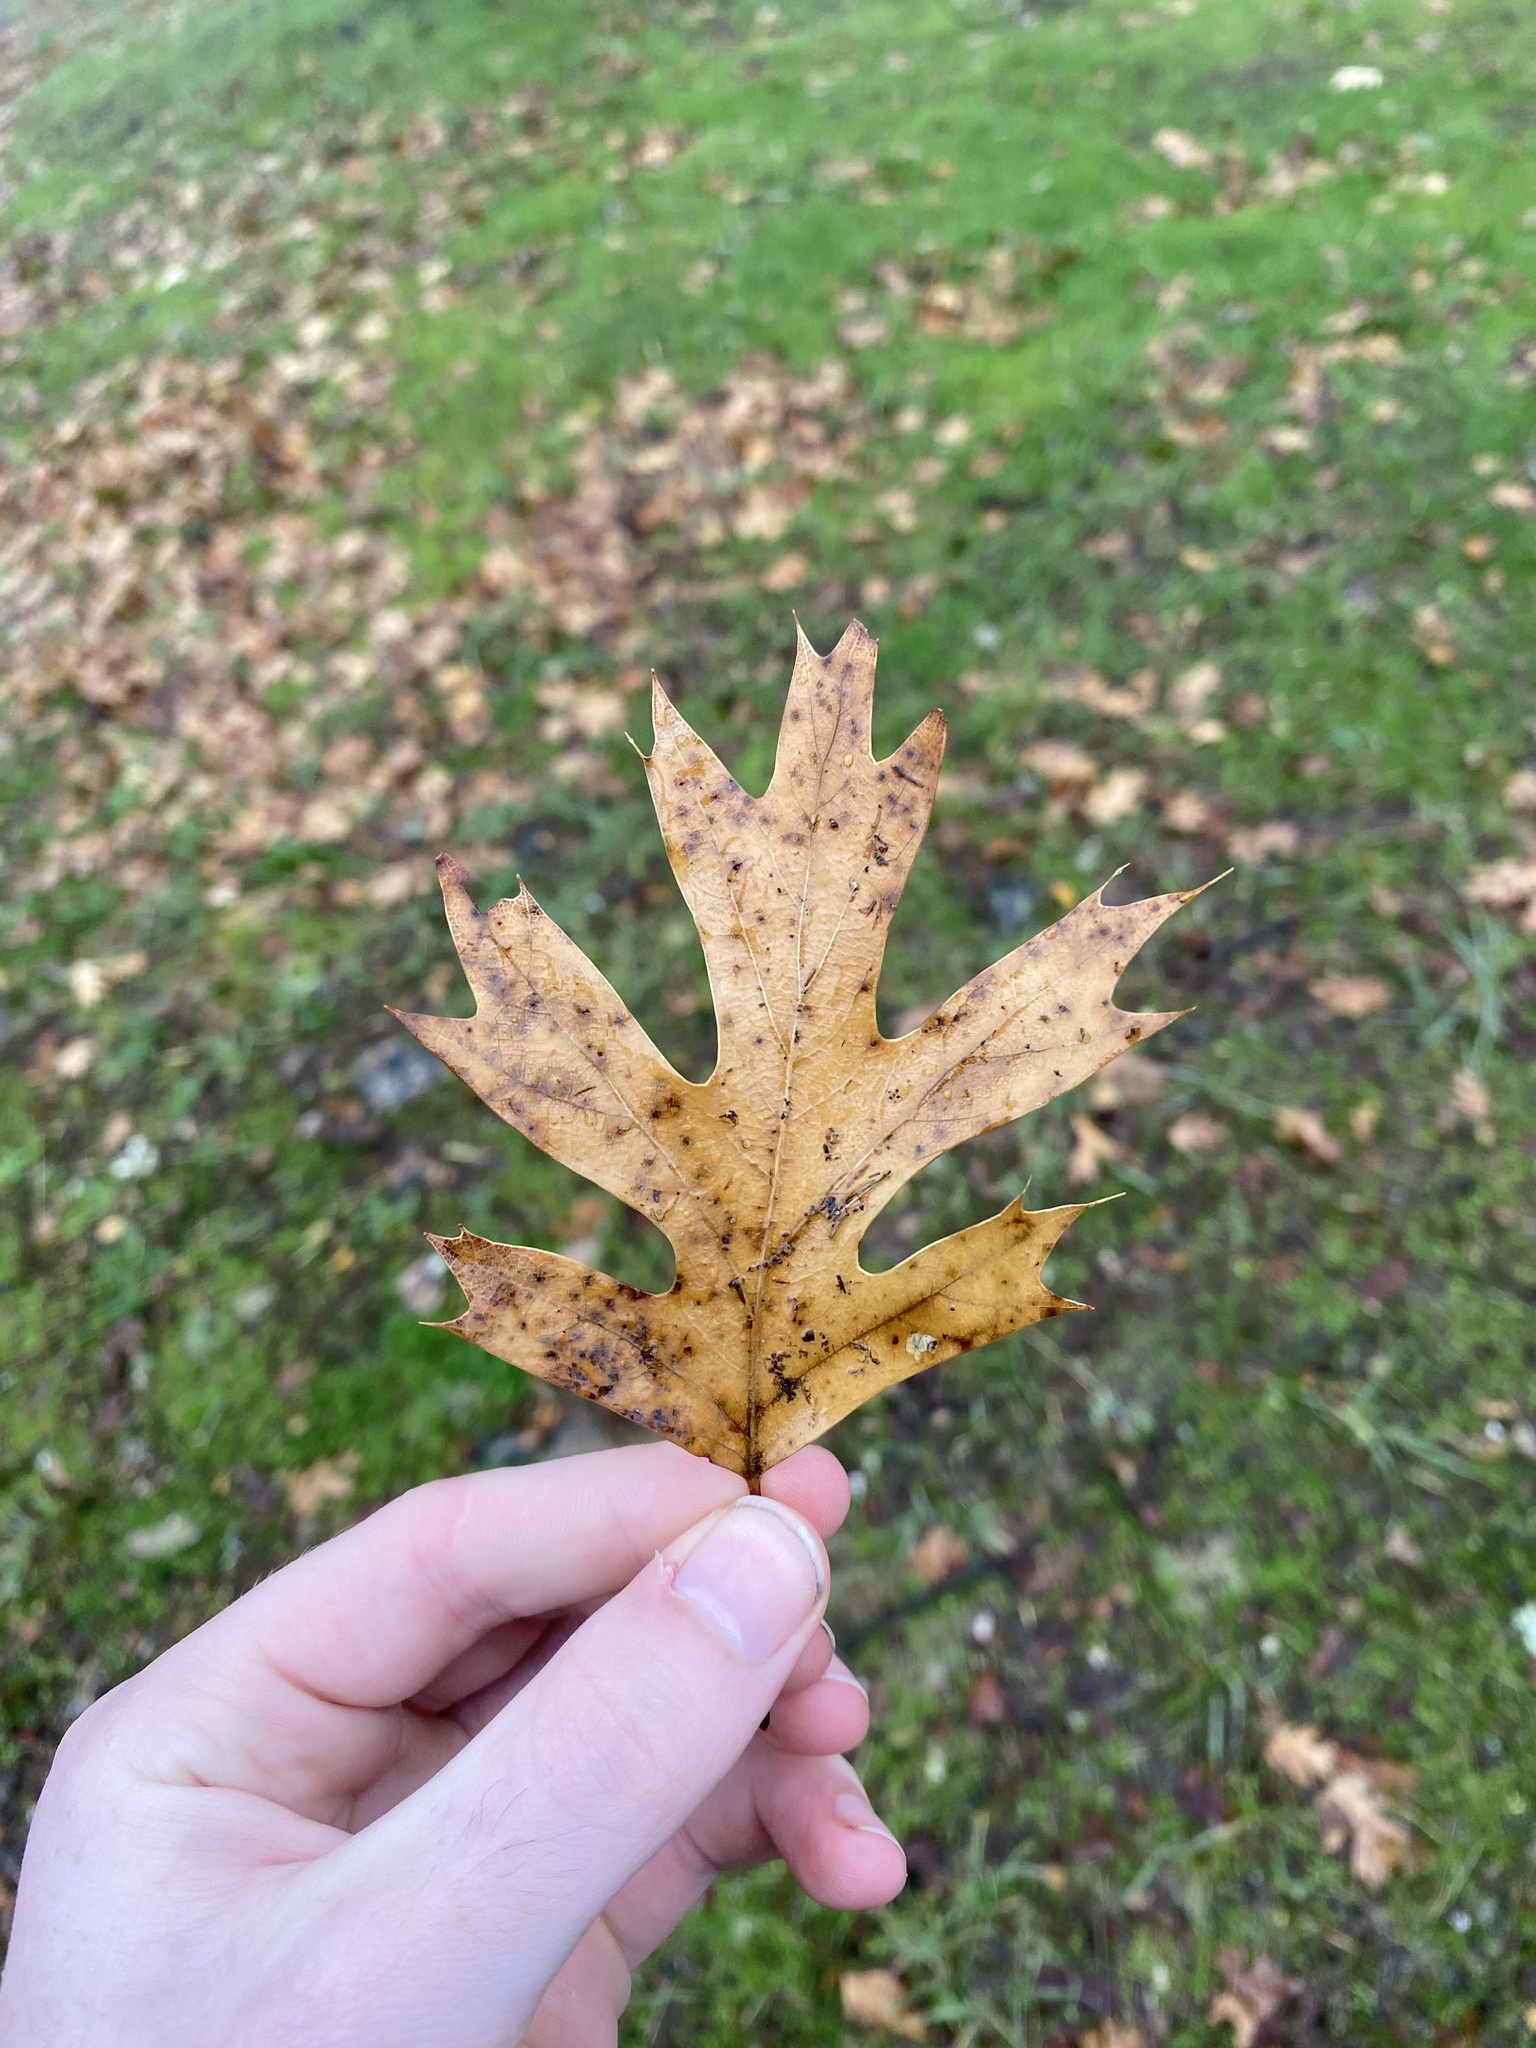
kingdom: Plantae
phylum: Tracheophyta
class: Magnoliopsida
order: Fagales
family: Fagaceae
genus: Quercus
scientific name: Quercus kelloggii
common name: California black oak
